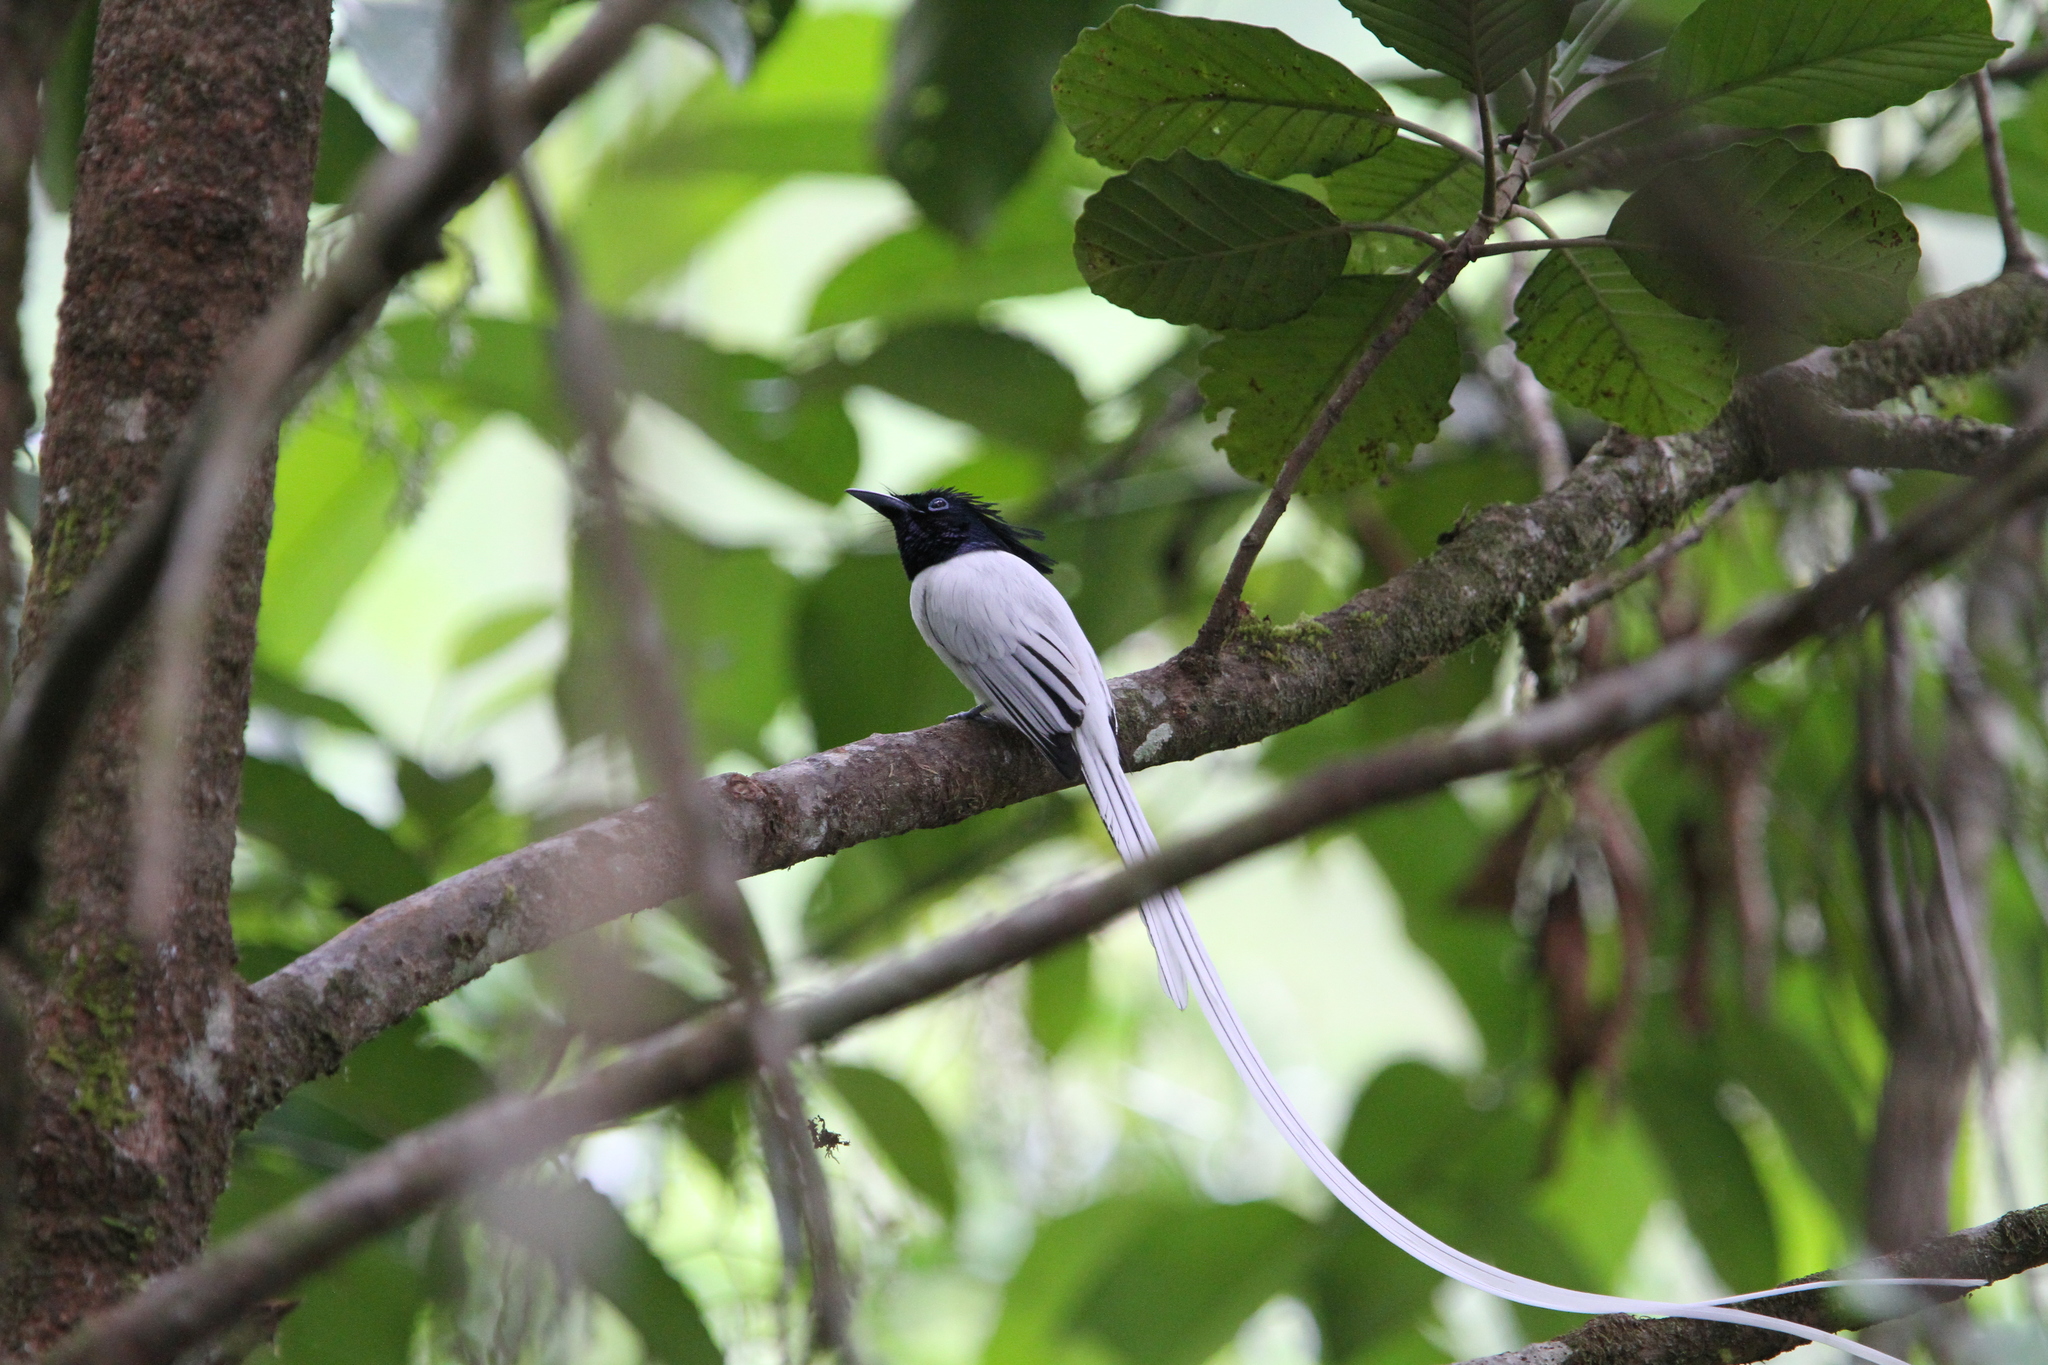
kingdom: Animalia
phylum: Chordata
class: Aves
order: Passeriformes
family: Monarchidae
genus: Terpsiphone
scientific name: Terpsiphone paradisi
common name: Indian paradise flycatcher
